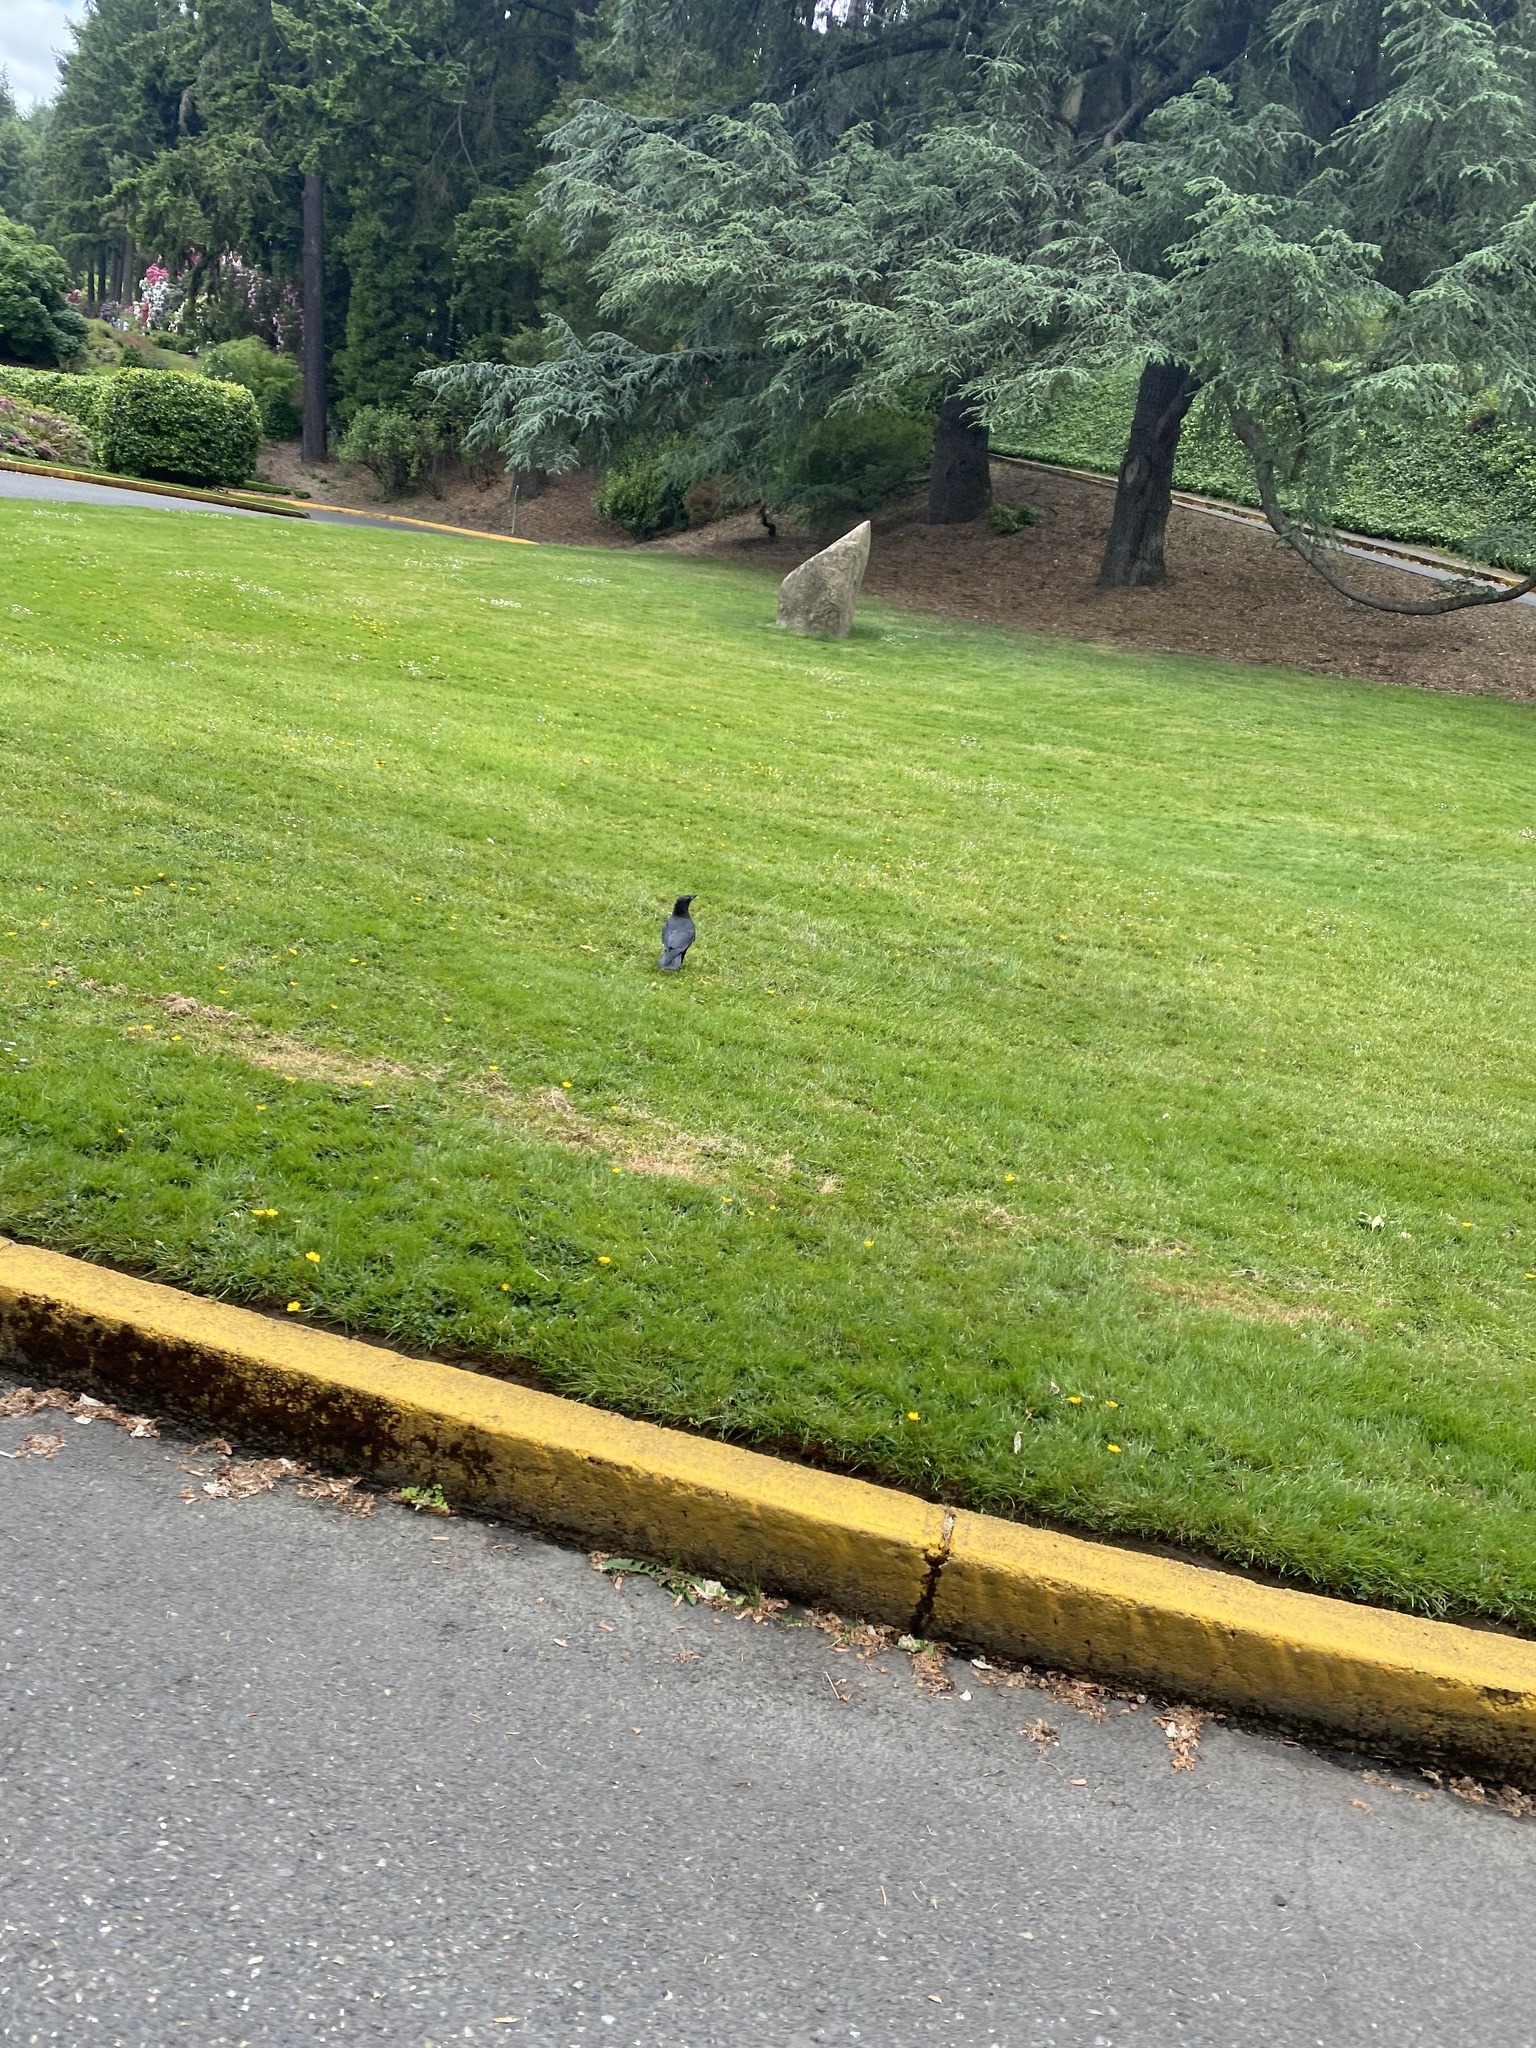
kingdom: Animalia
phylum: Chordata
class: Aves
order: Passeriformes
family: Corvidae
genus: Corvus
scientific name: Corvus brachyrhynchos
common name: American crow
